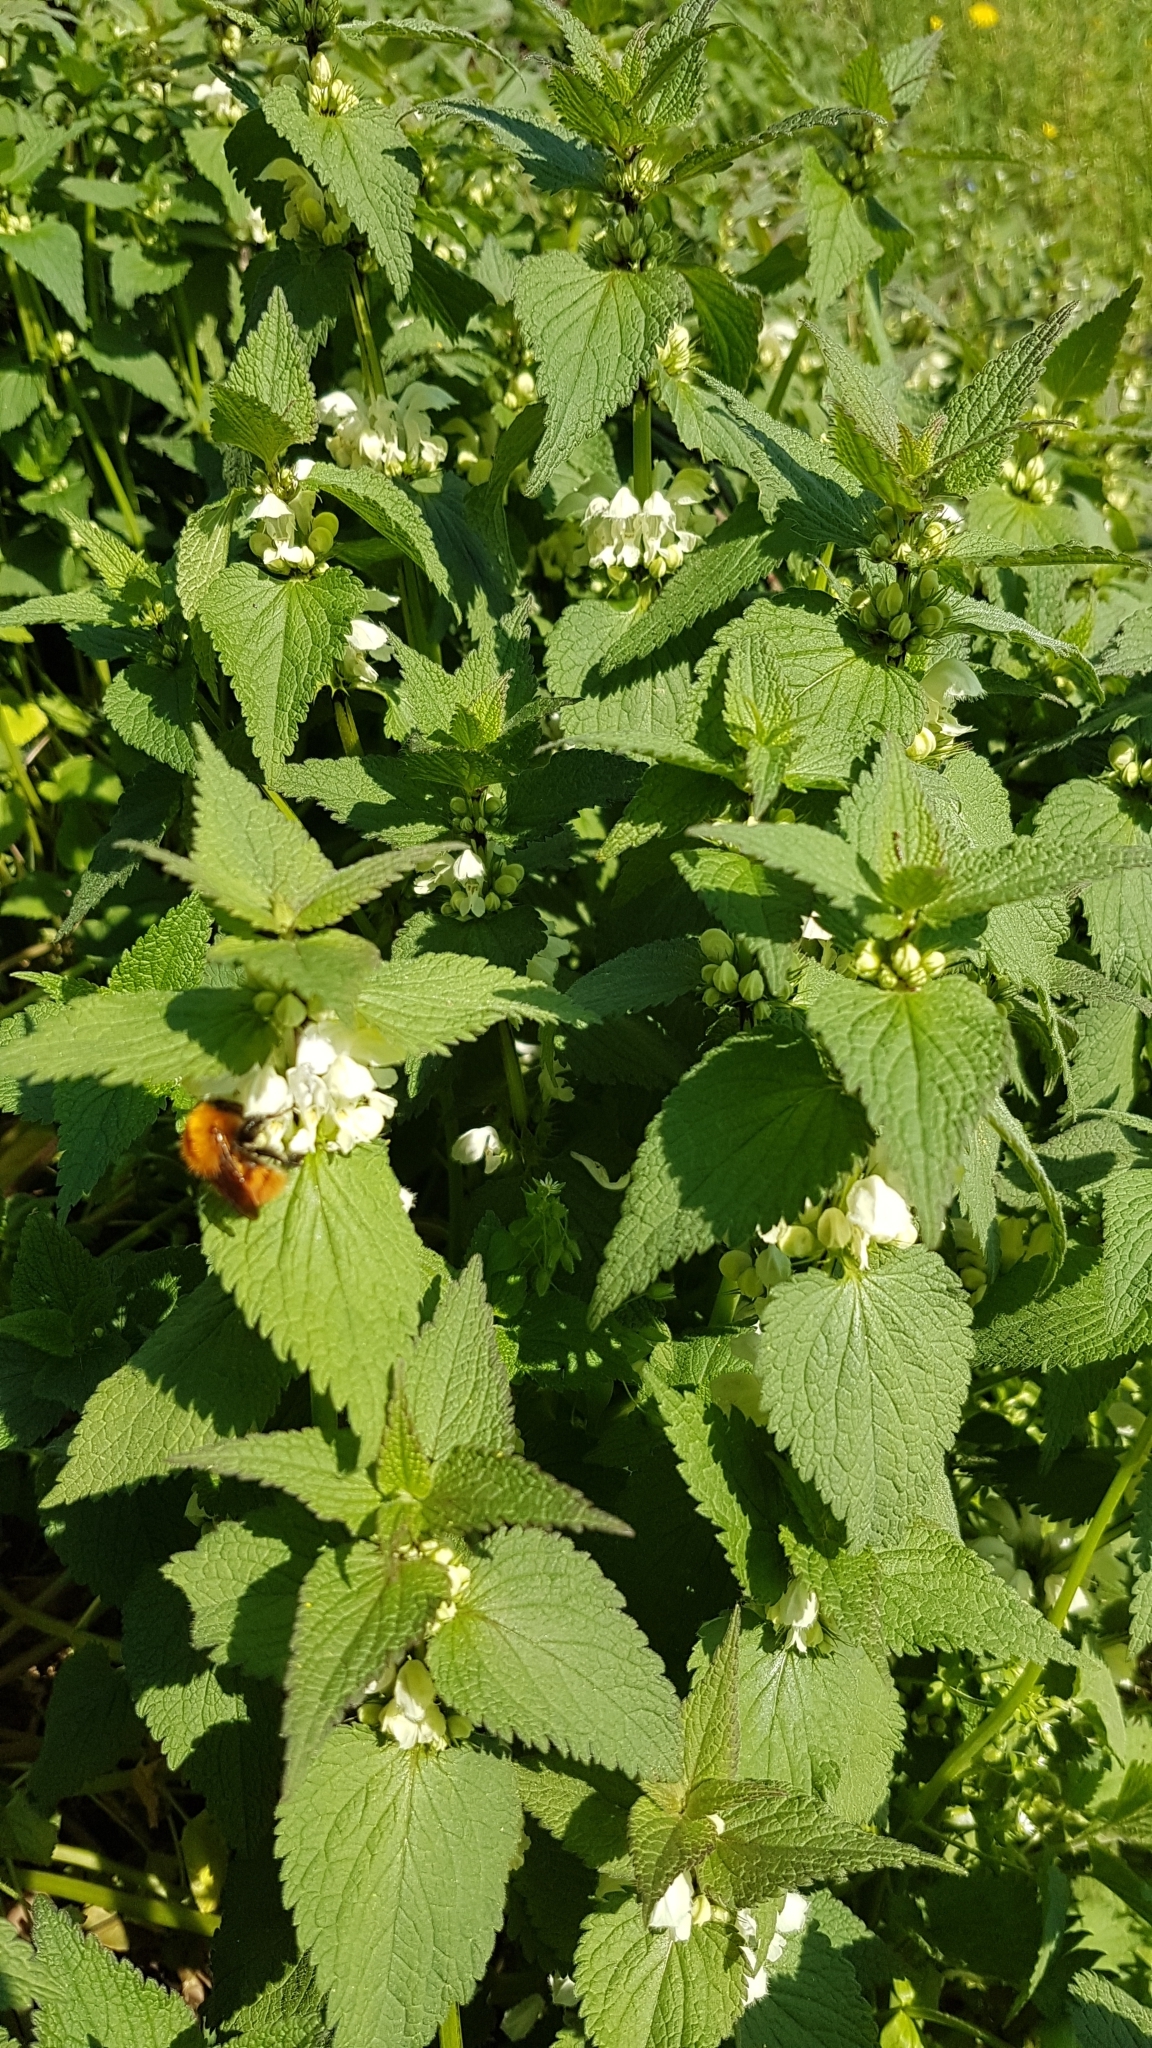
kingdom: Plantae
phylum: Tracheophyta
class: Magnoliopsida
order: Lamiales
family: Lamiaceae
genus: Lamium
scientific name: Lamium album
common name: White dead-nettle
